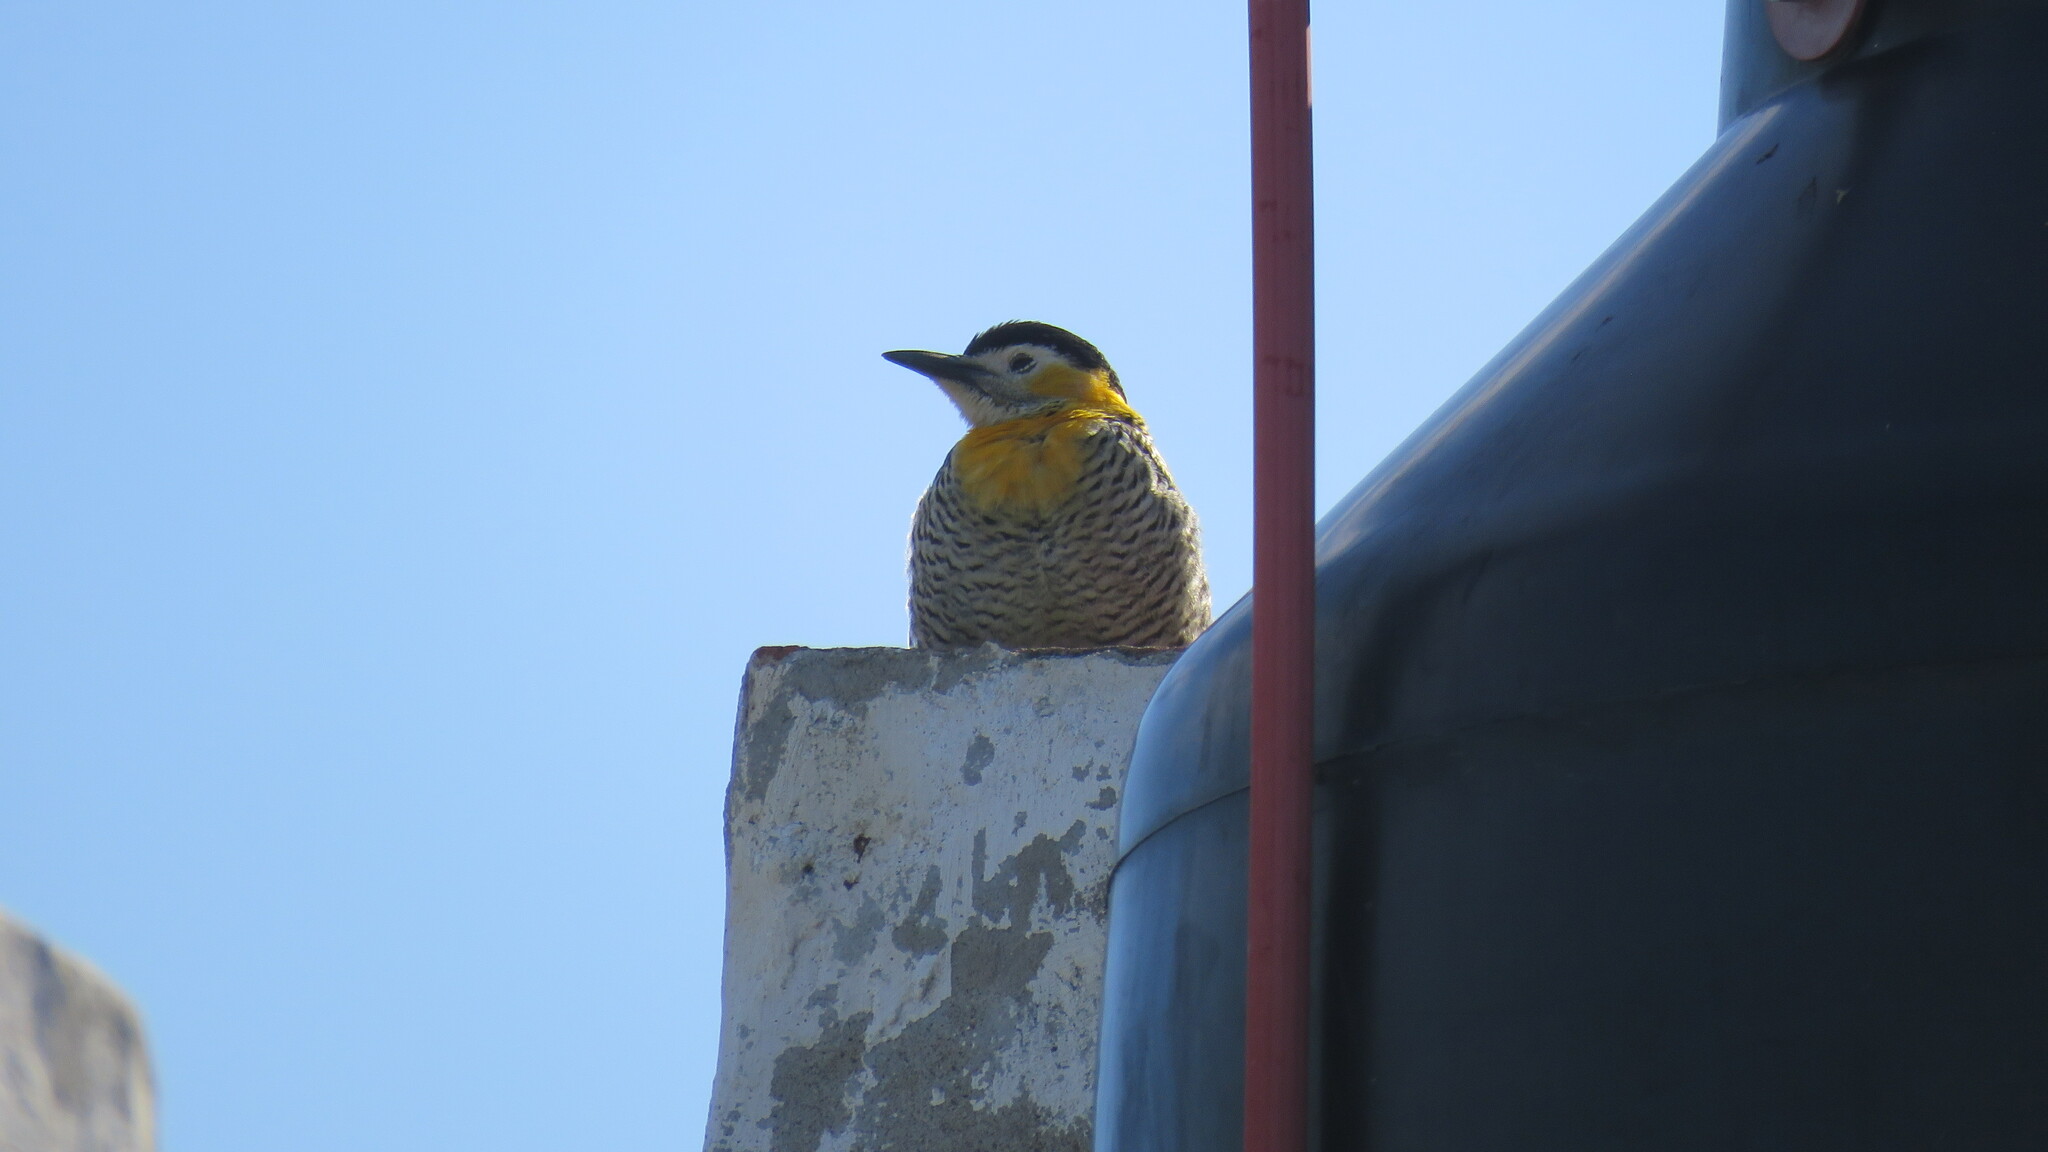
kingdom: Animalia
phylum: Chordata
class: Aves
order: Piciformes
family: Picidae
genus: Colaptes
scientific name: Colaptes campestris
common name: Campo flicker
